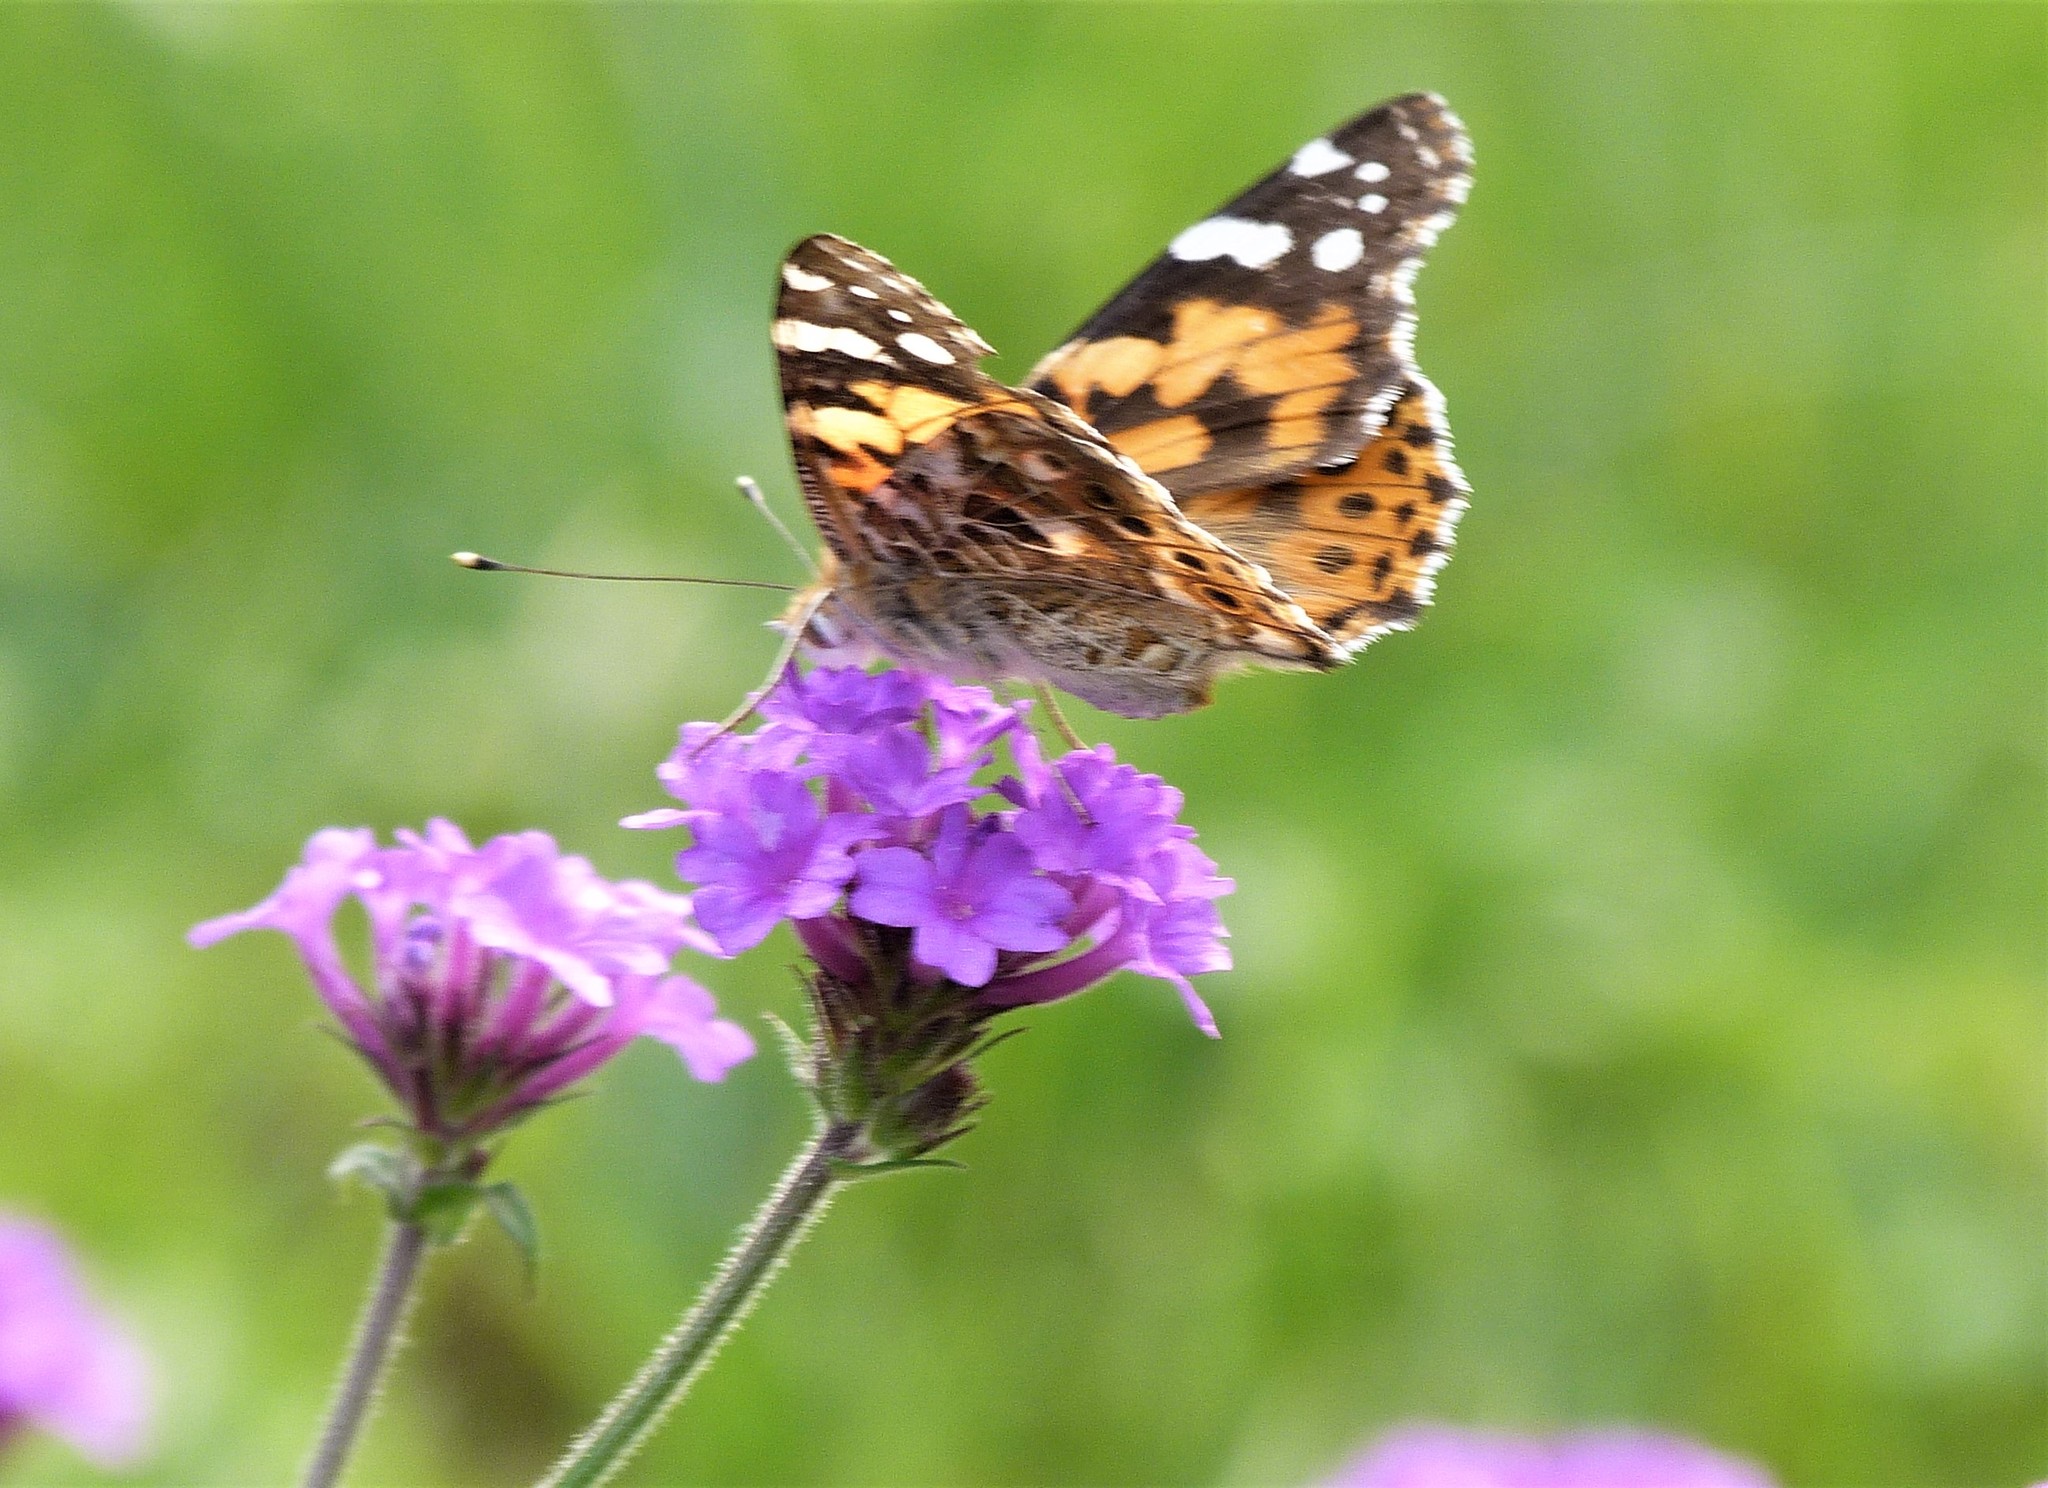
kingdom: Animalia
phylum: Arthropoda
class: Insecta
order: Lepidoptera
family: Nymphalidae
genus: Vanessa
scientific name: Vanessa cardui
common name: Painted lady
